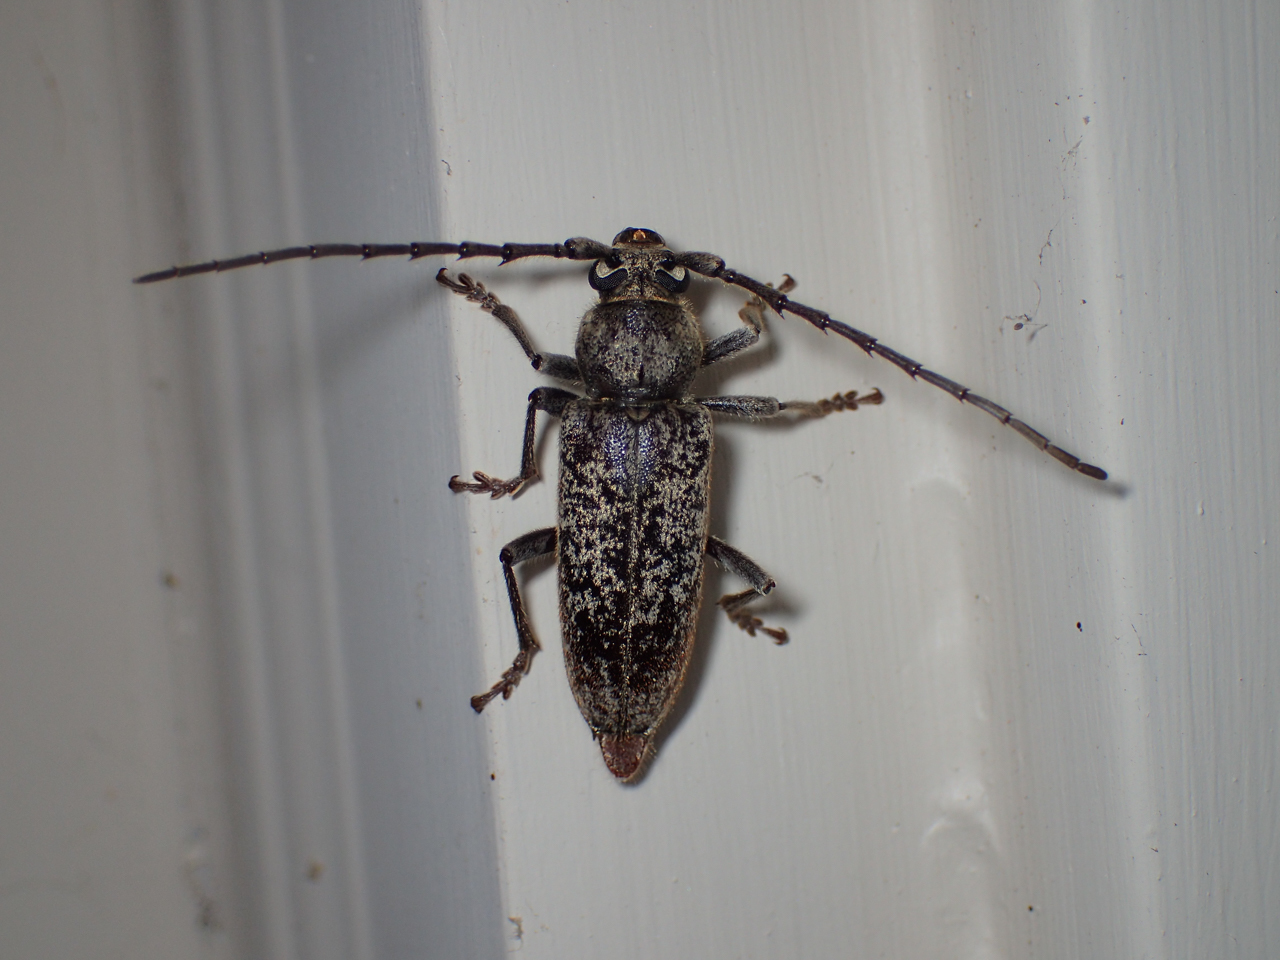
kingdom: Animalia
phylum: Arthropoda
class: Insecta
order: Coleoptera
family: Cerambycidae
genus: Enaphalodes
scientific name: Enaphalodes atomarius
